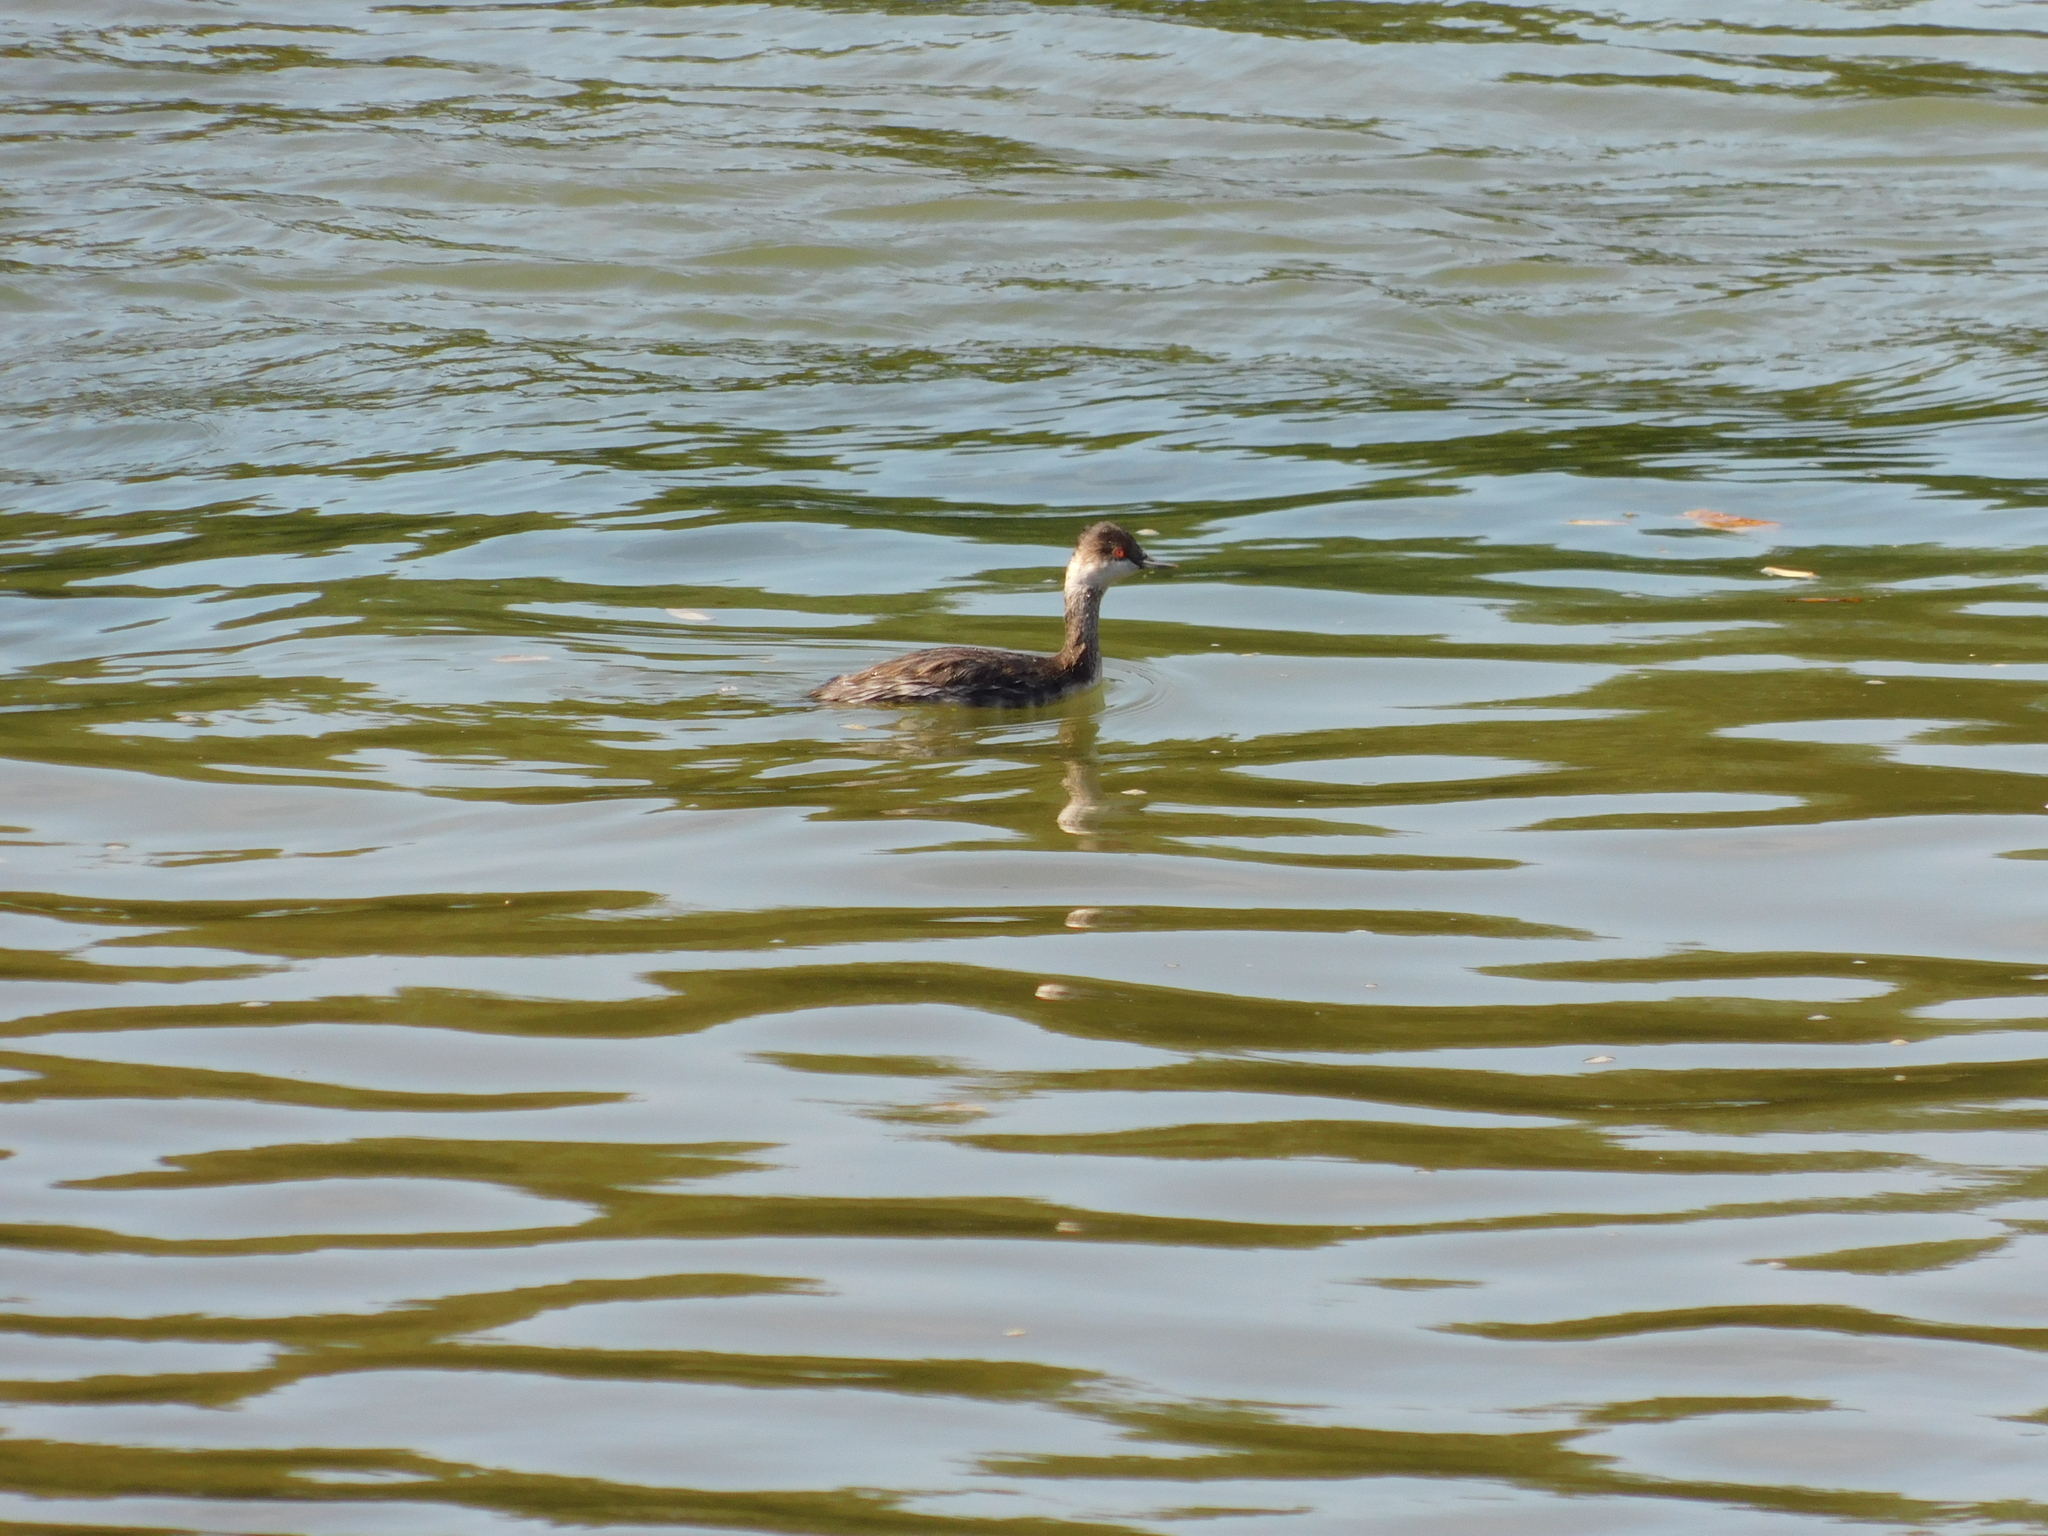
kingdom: Animalia
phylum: Chordata
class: Aves
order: Podicipediformes
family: Podicipedidae
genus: Podiceps
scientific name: Podiceps nigricollis
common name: Black-necked grebe
